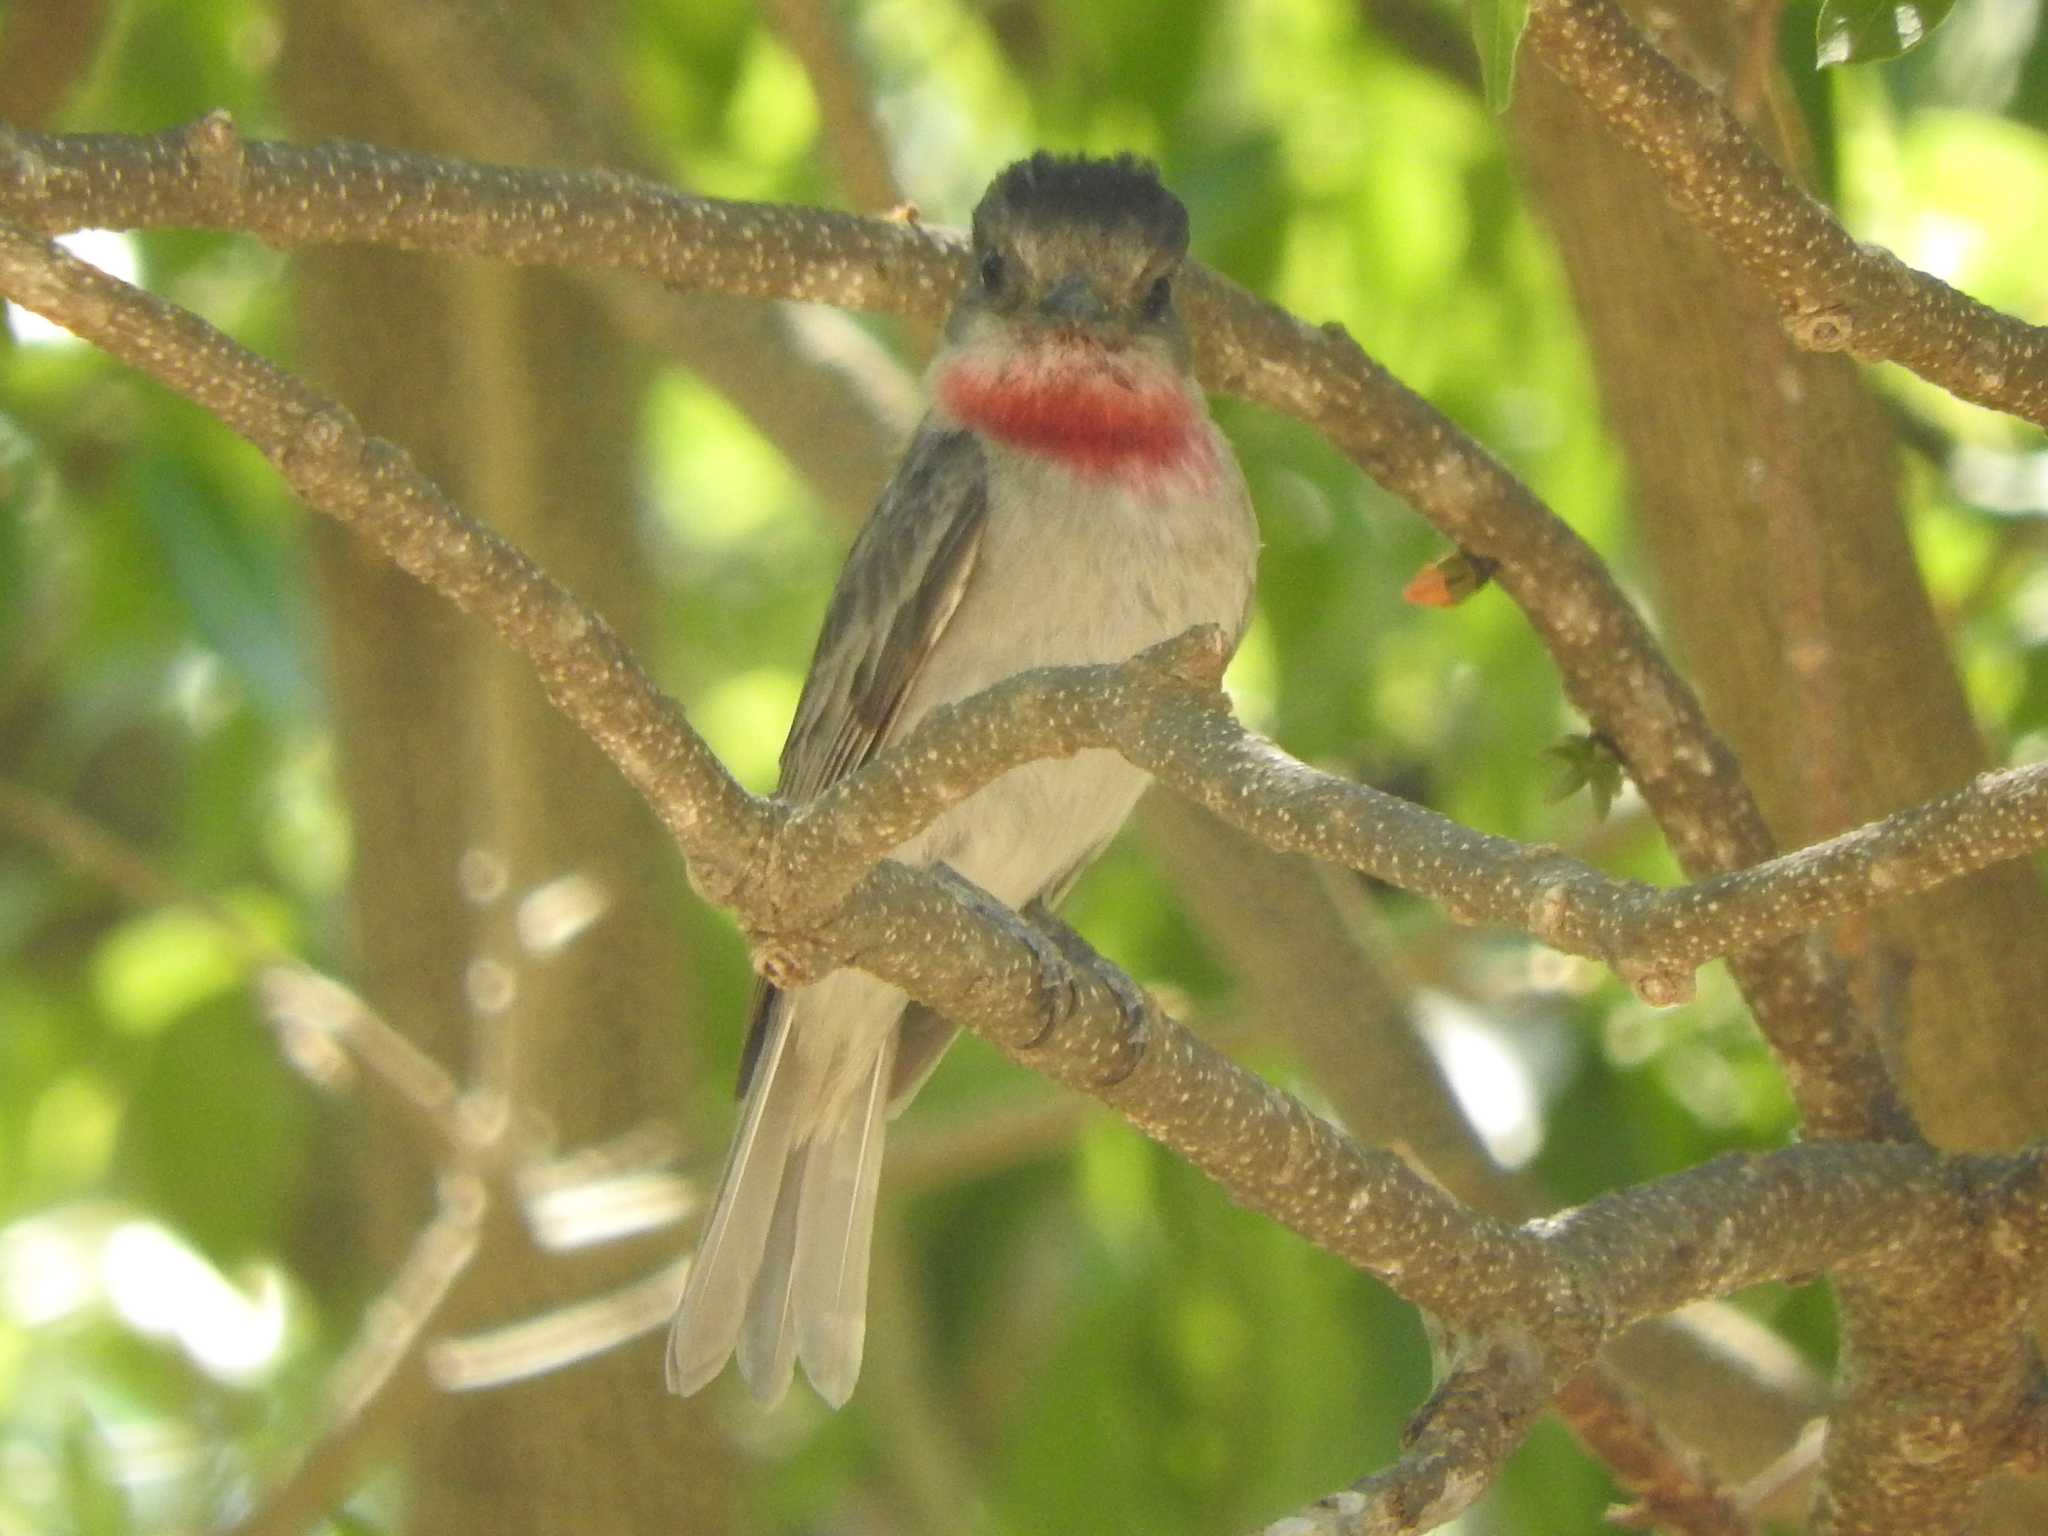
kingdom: Animalia
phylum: Chordata
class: Aves
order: Passeriformes
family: Cotingidae
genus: Pachyramphus
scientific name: Pachyramphus aglaiae
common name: Rose-throated becard
